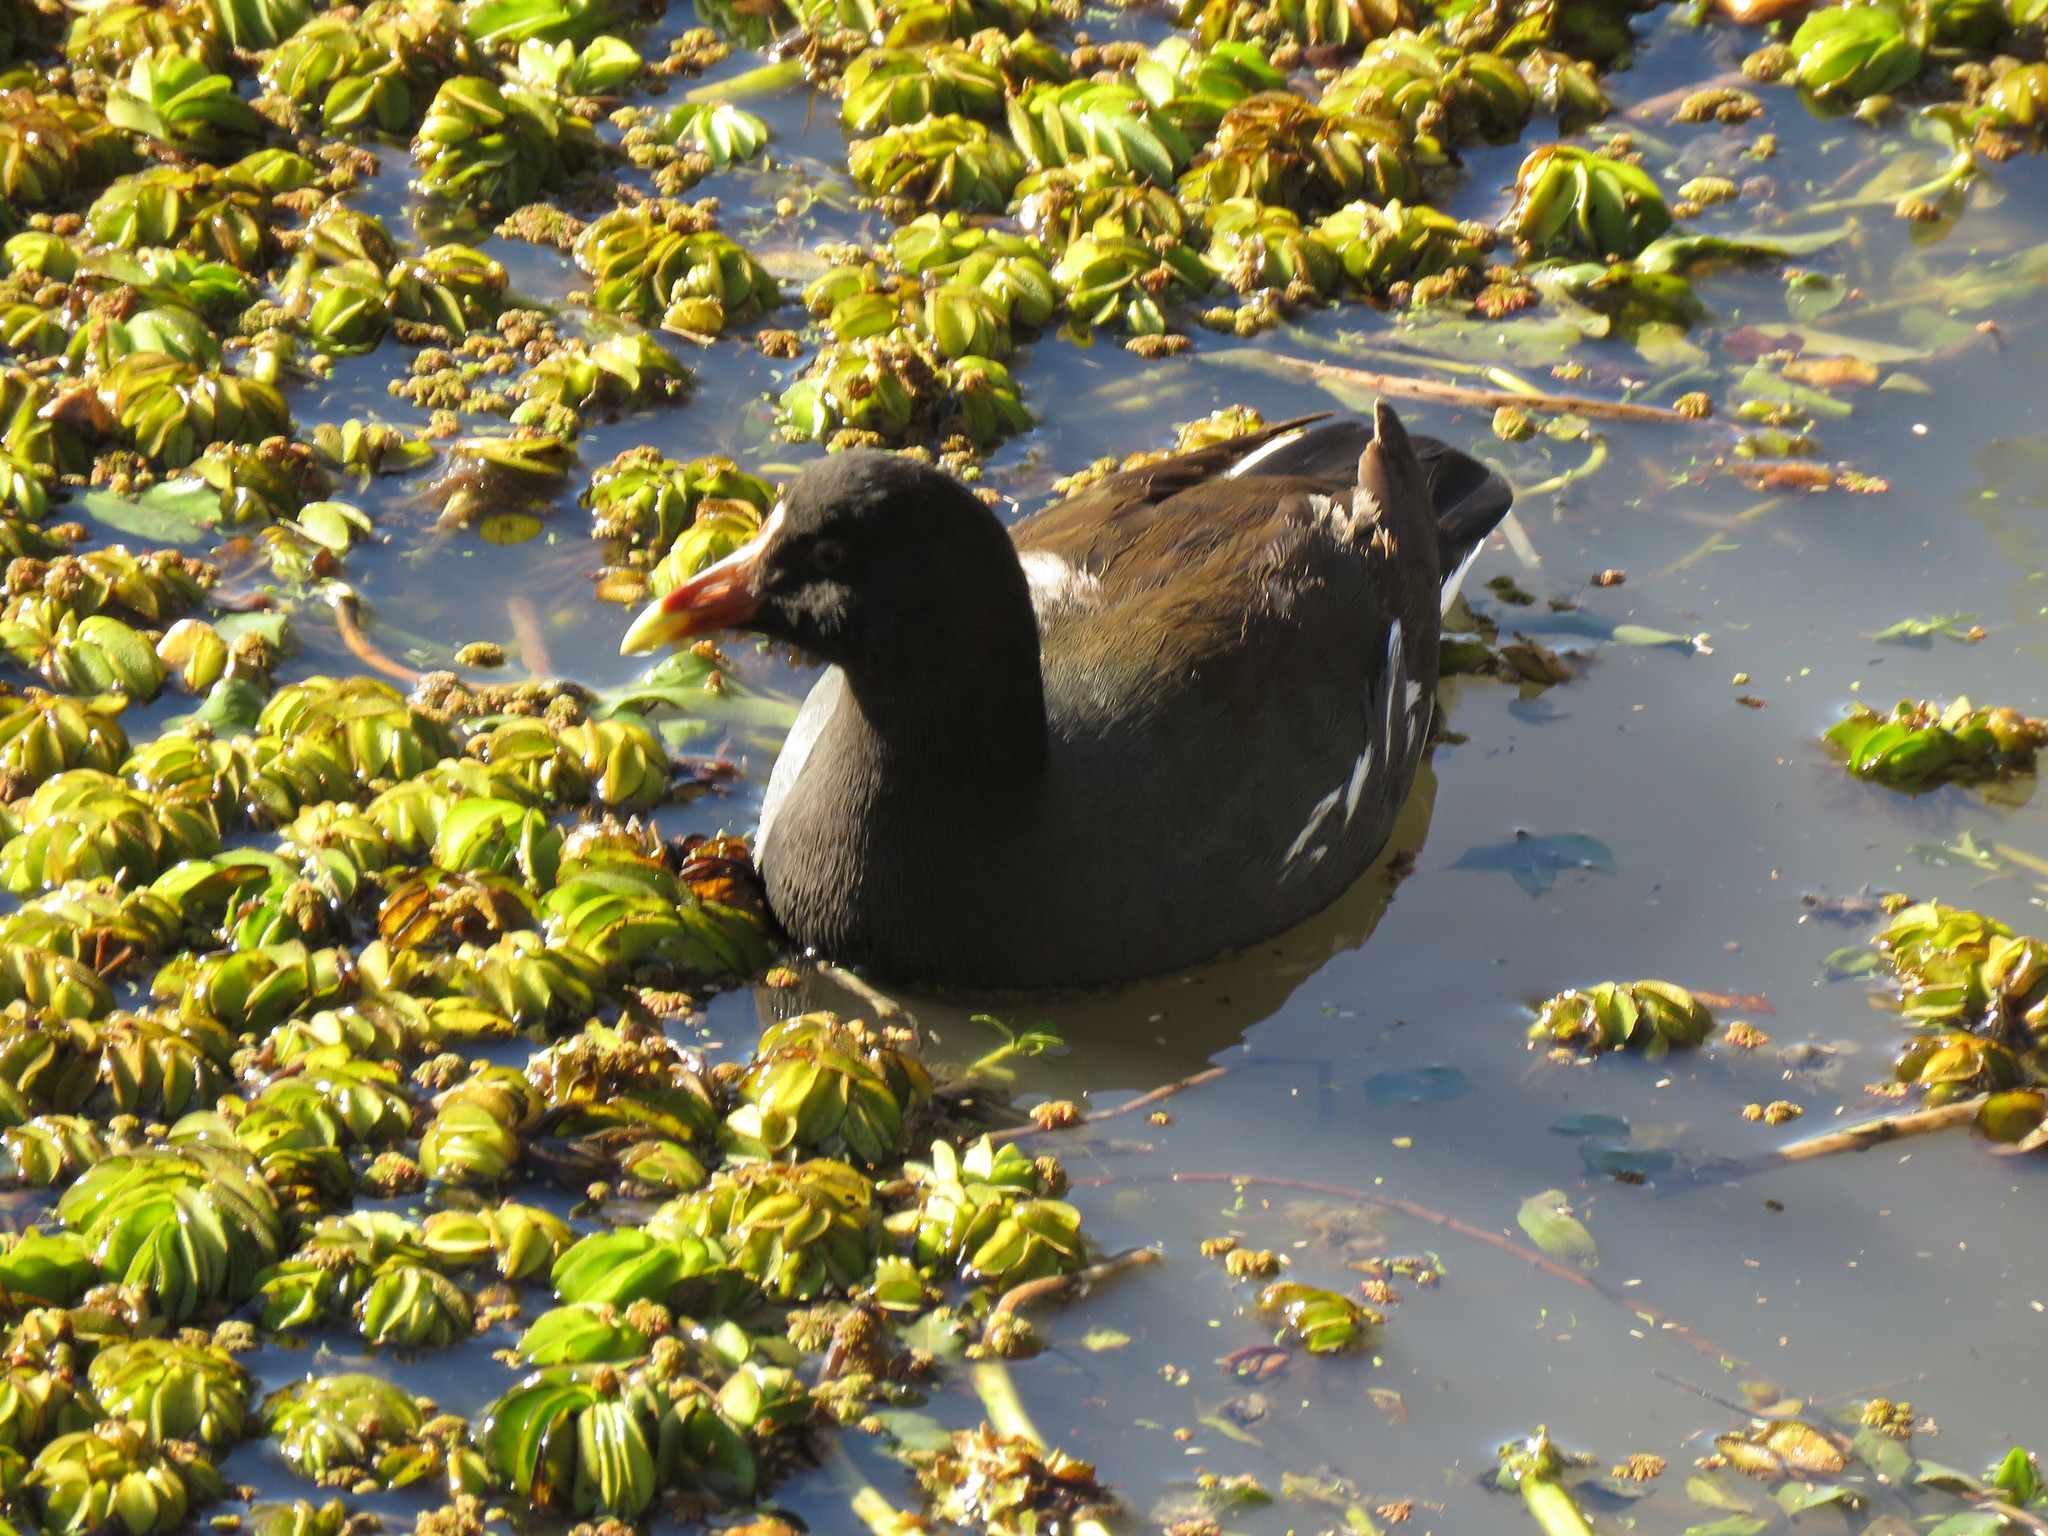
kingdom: Animalia
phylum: Chordata
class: Aves
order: Gruiformes
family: Rallidae
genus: Gallinula
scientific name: Gallinula chloropus
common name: Common moorhen
